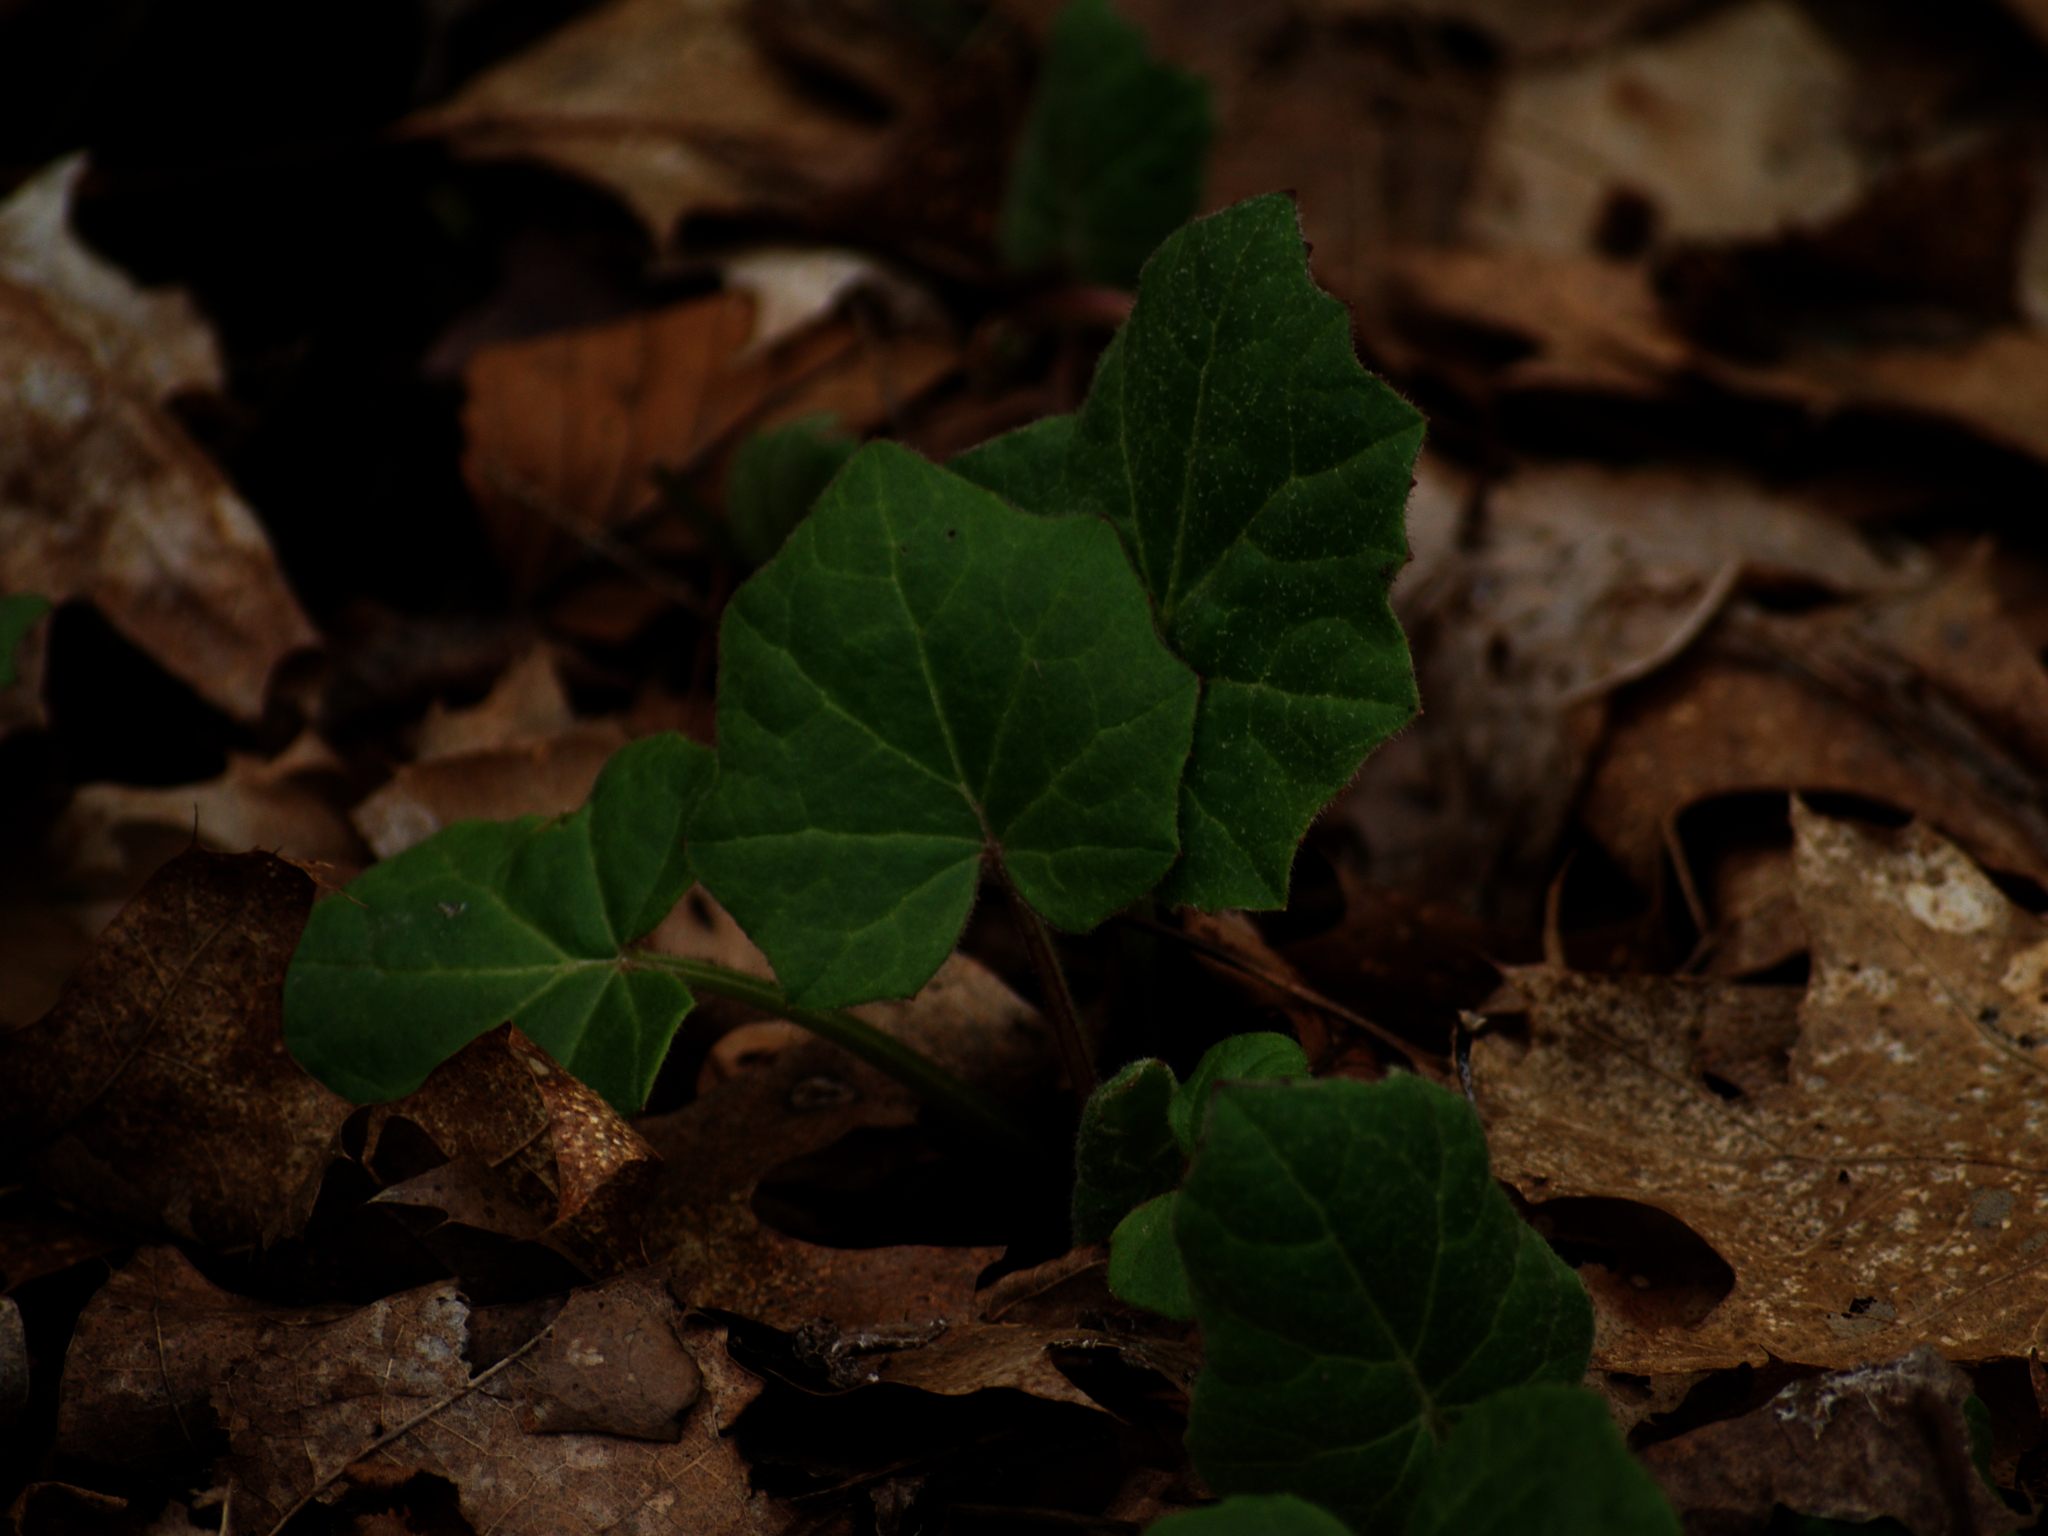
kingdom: Plantae
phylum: Tracheophyta
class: Magnoliopsida
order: Asterales
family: Asteraceae
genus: Tussilago
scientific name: Tussilago farfara
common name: Coltsfoot
